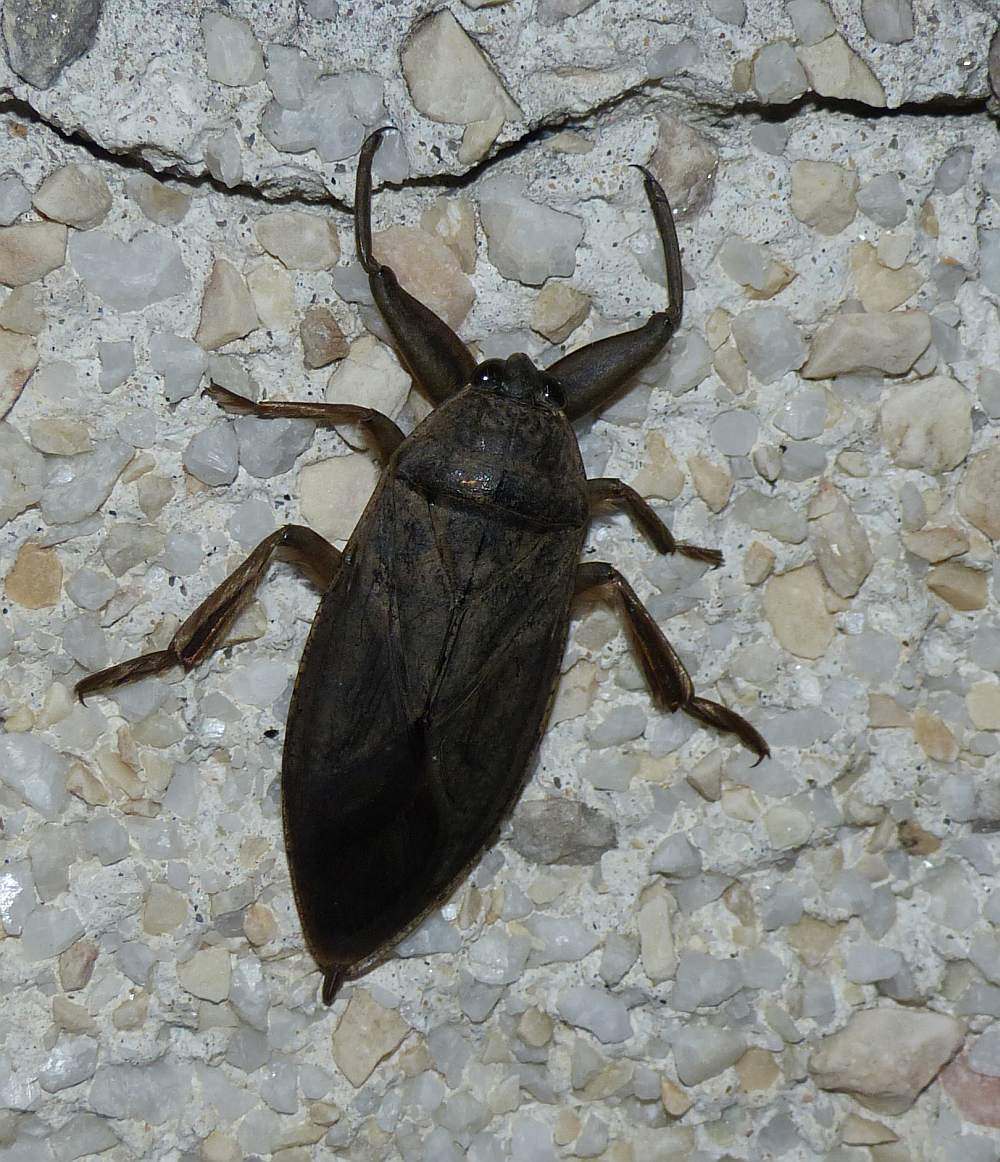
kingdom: Animalia
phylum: Arthropoda
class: Insecta
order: Hemiptera
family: Belostomatidae
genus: Lethocerus
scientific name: Lethocerus americanus
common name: Giant water bug
